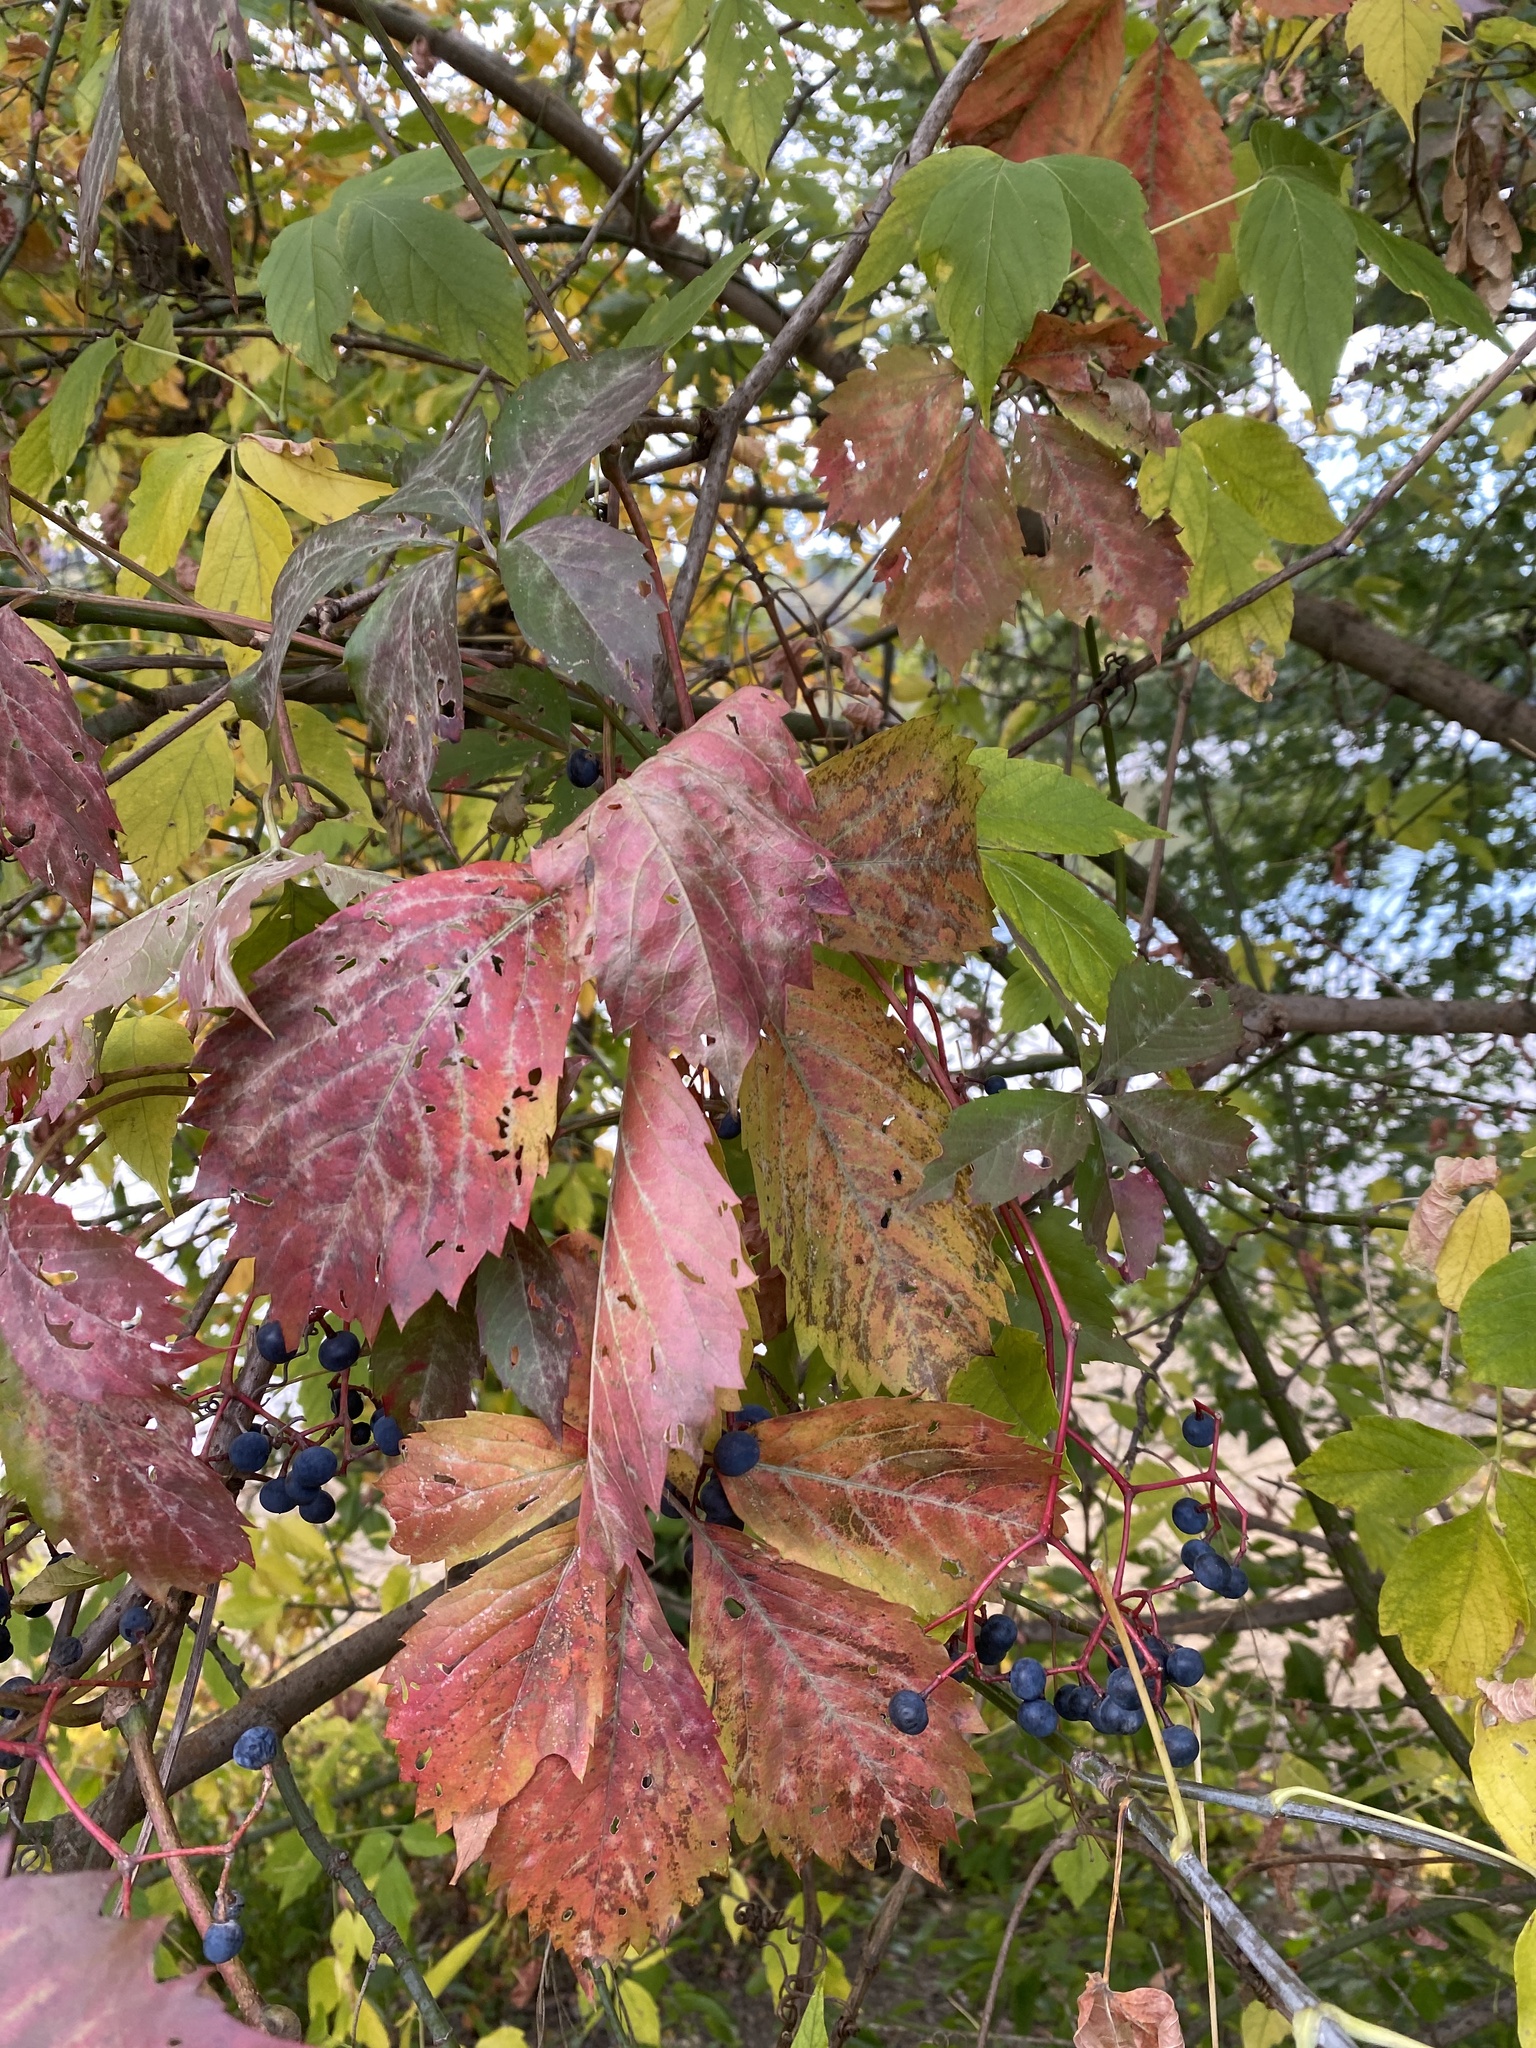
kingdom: Plantae
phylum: Tracheophyta
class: Magnoliopsida
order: Vitales
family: Vitaceae
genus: Parthenocissus
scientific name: Parthenocissus inserta
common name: False virginia-creeper
